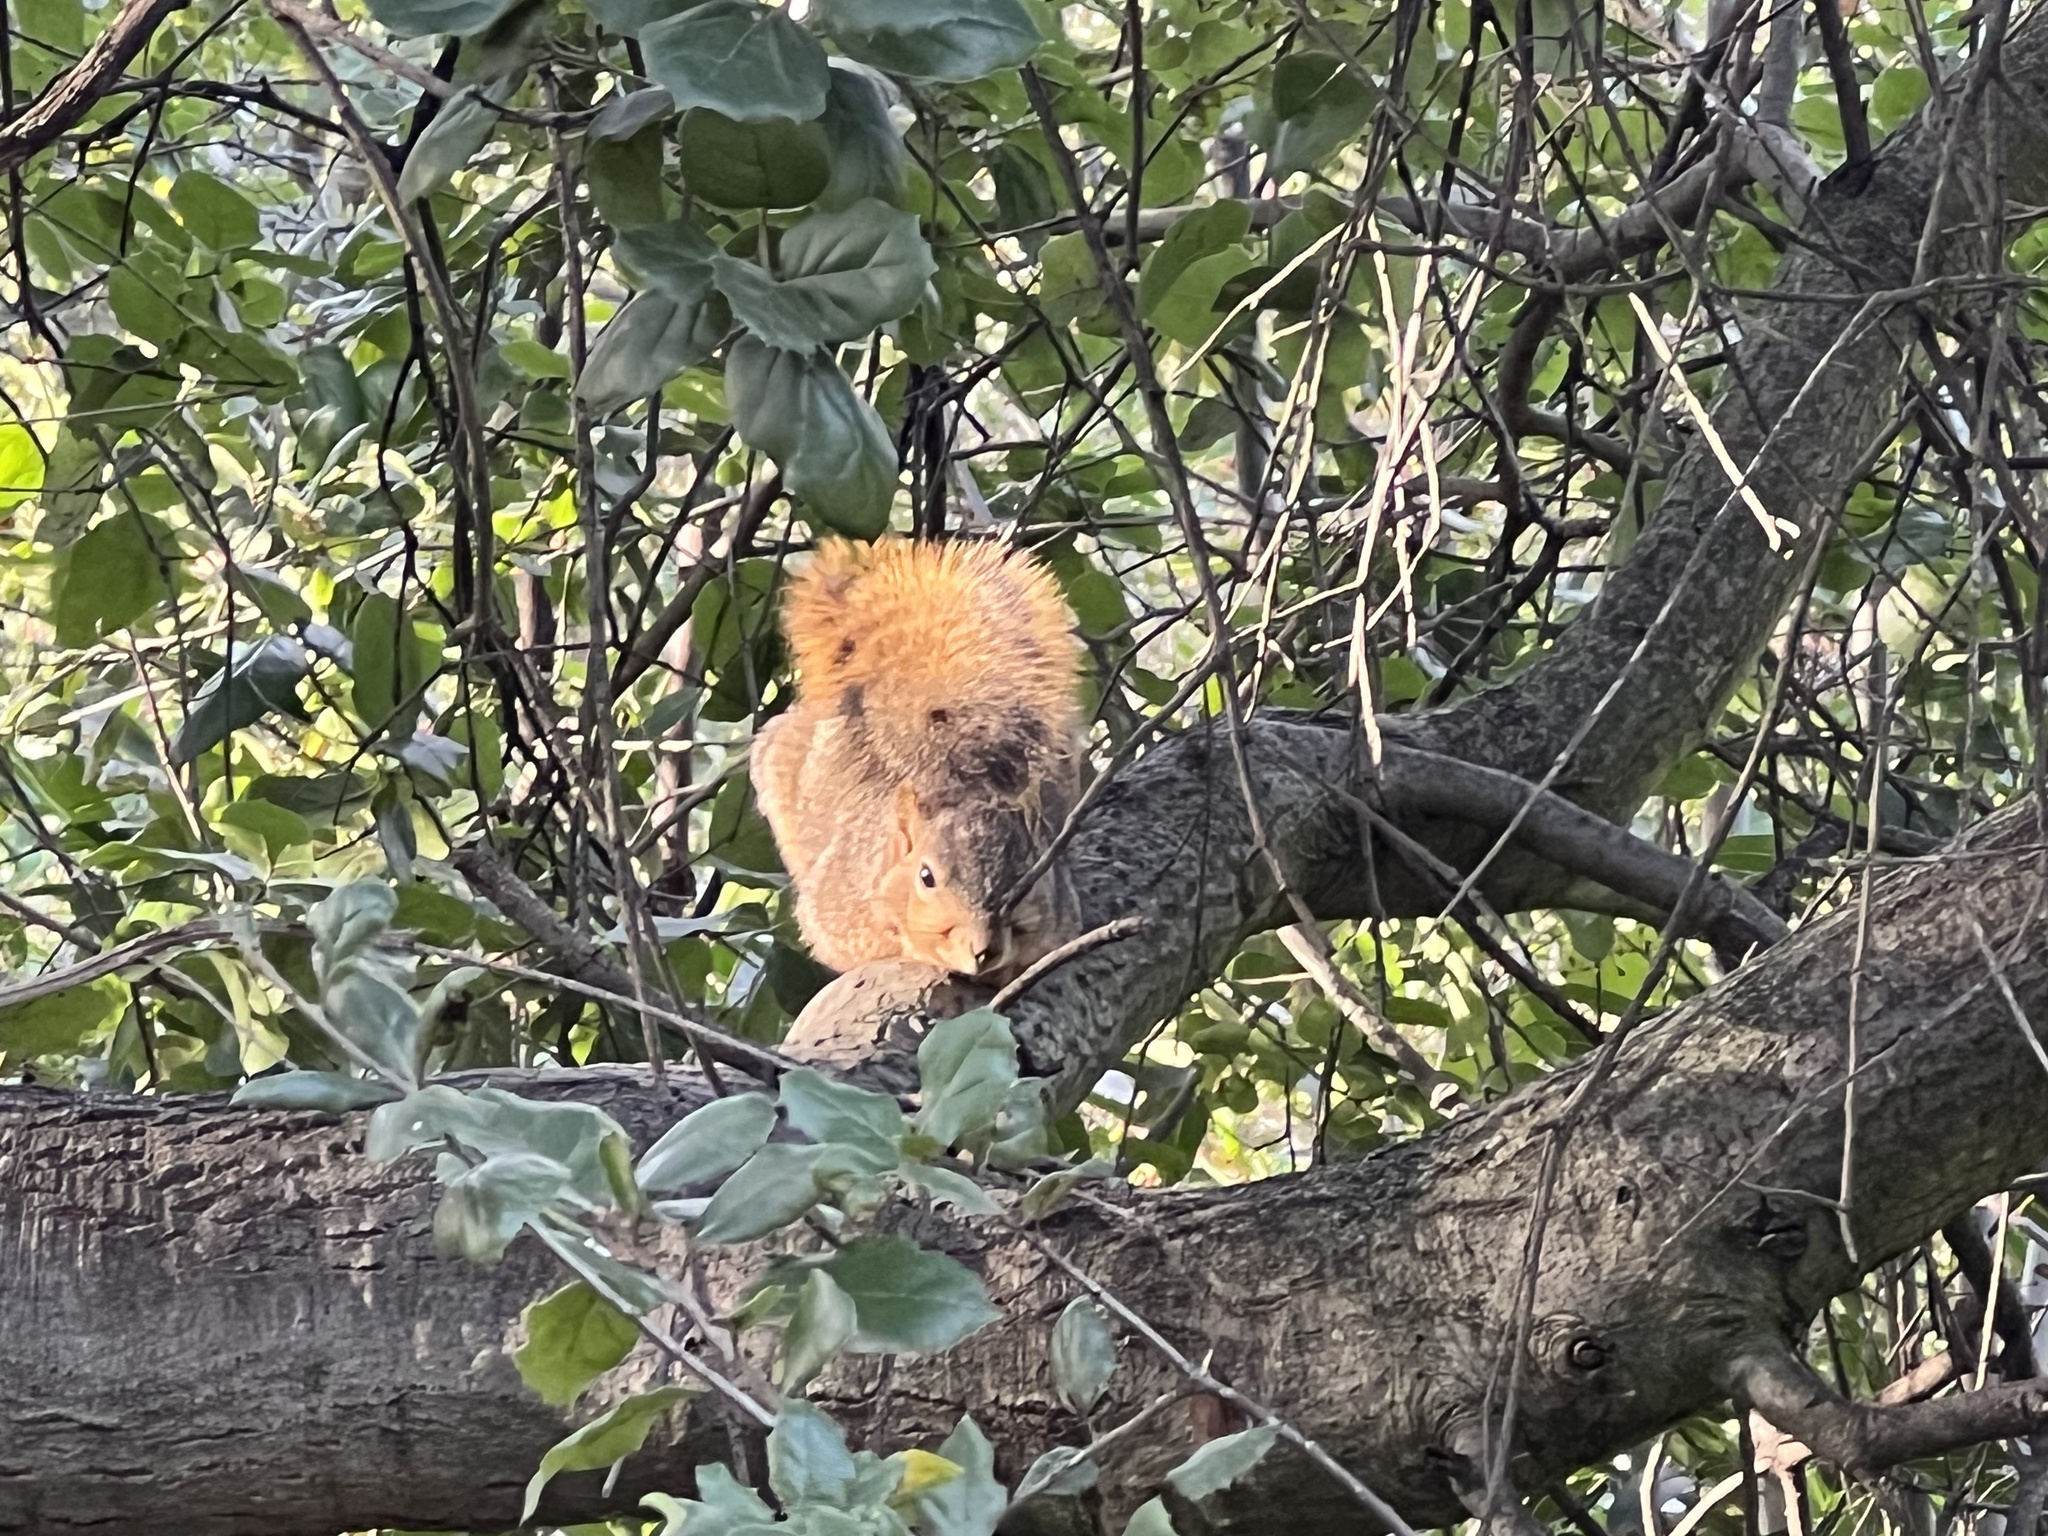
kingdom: Animalia
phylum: Chordata
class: Mammalia
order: Rodentia
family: Sciuridae
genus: Sciurus
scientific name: Sciurus niger
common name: Fox squirrel
